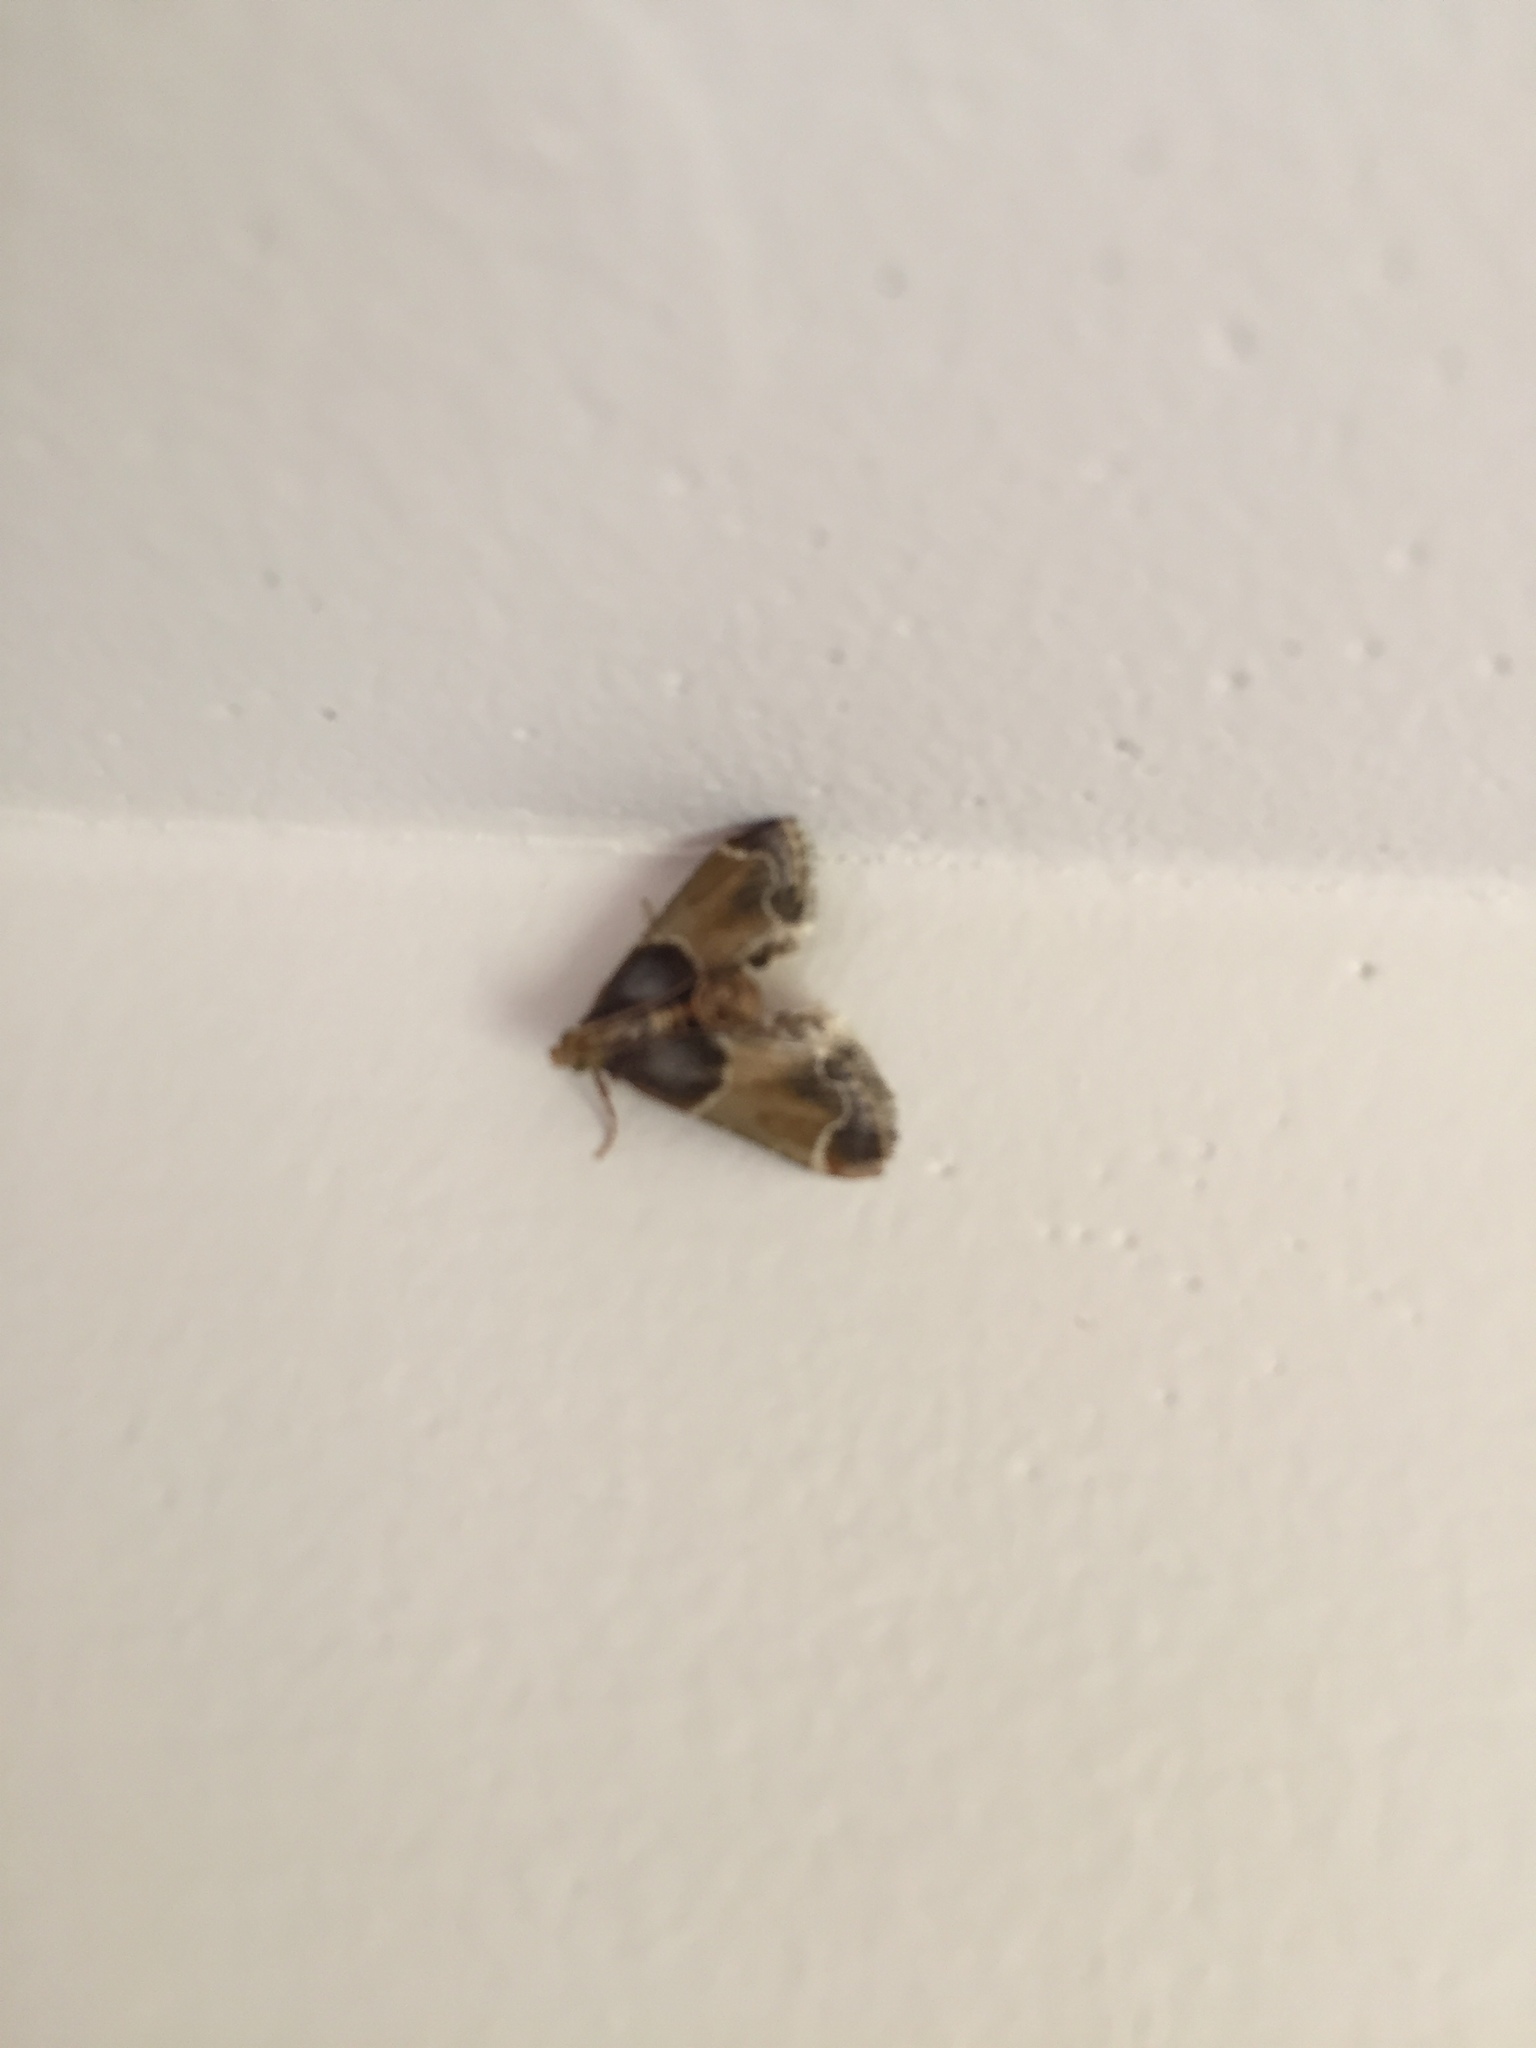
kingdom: Animalia
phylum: Arthropoda
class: Insecta
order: Lepidoptera
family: Pyralidae
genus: Pyralis
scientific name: Pyralis farinalis
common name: Meal moth
